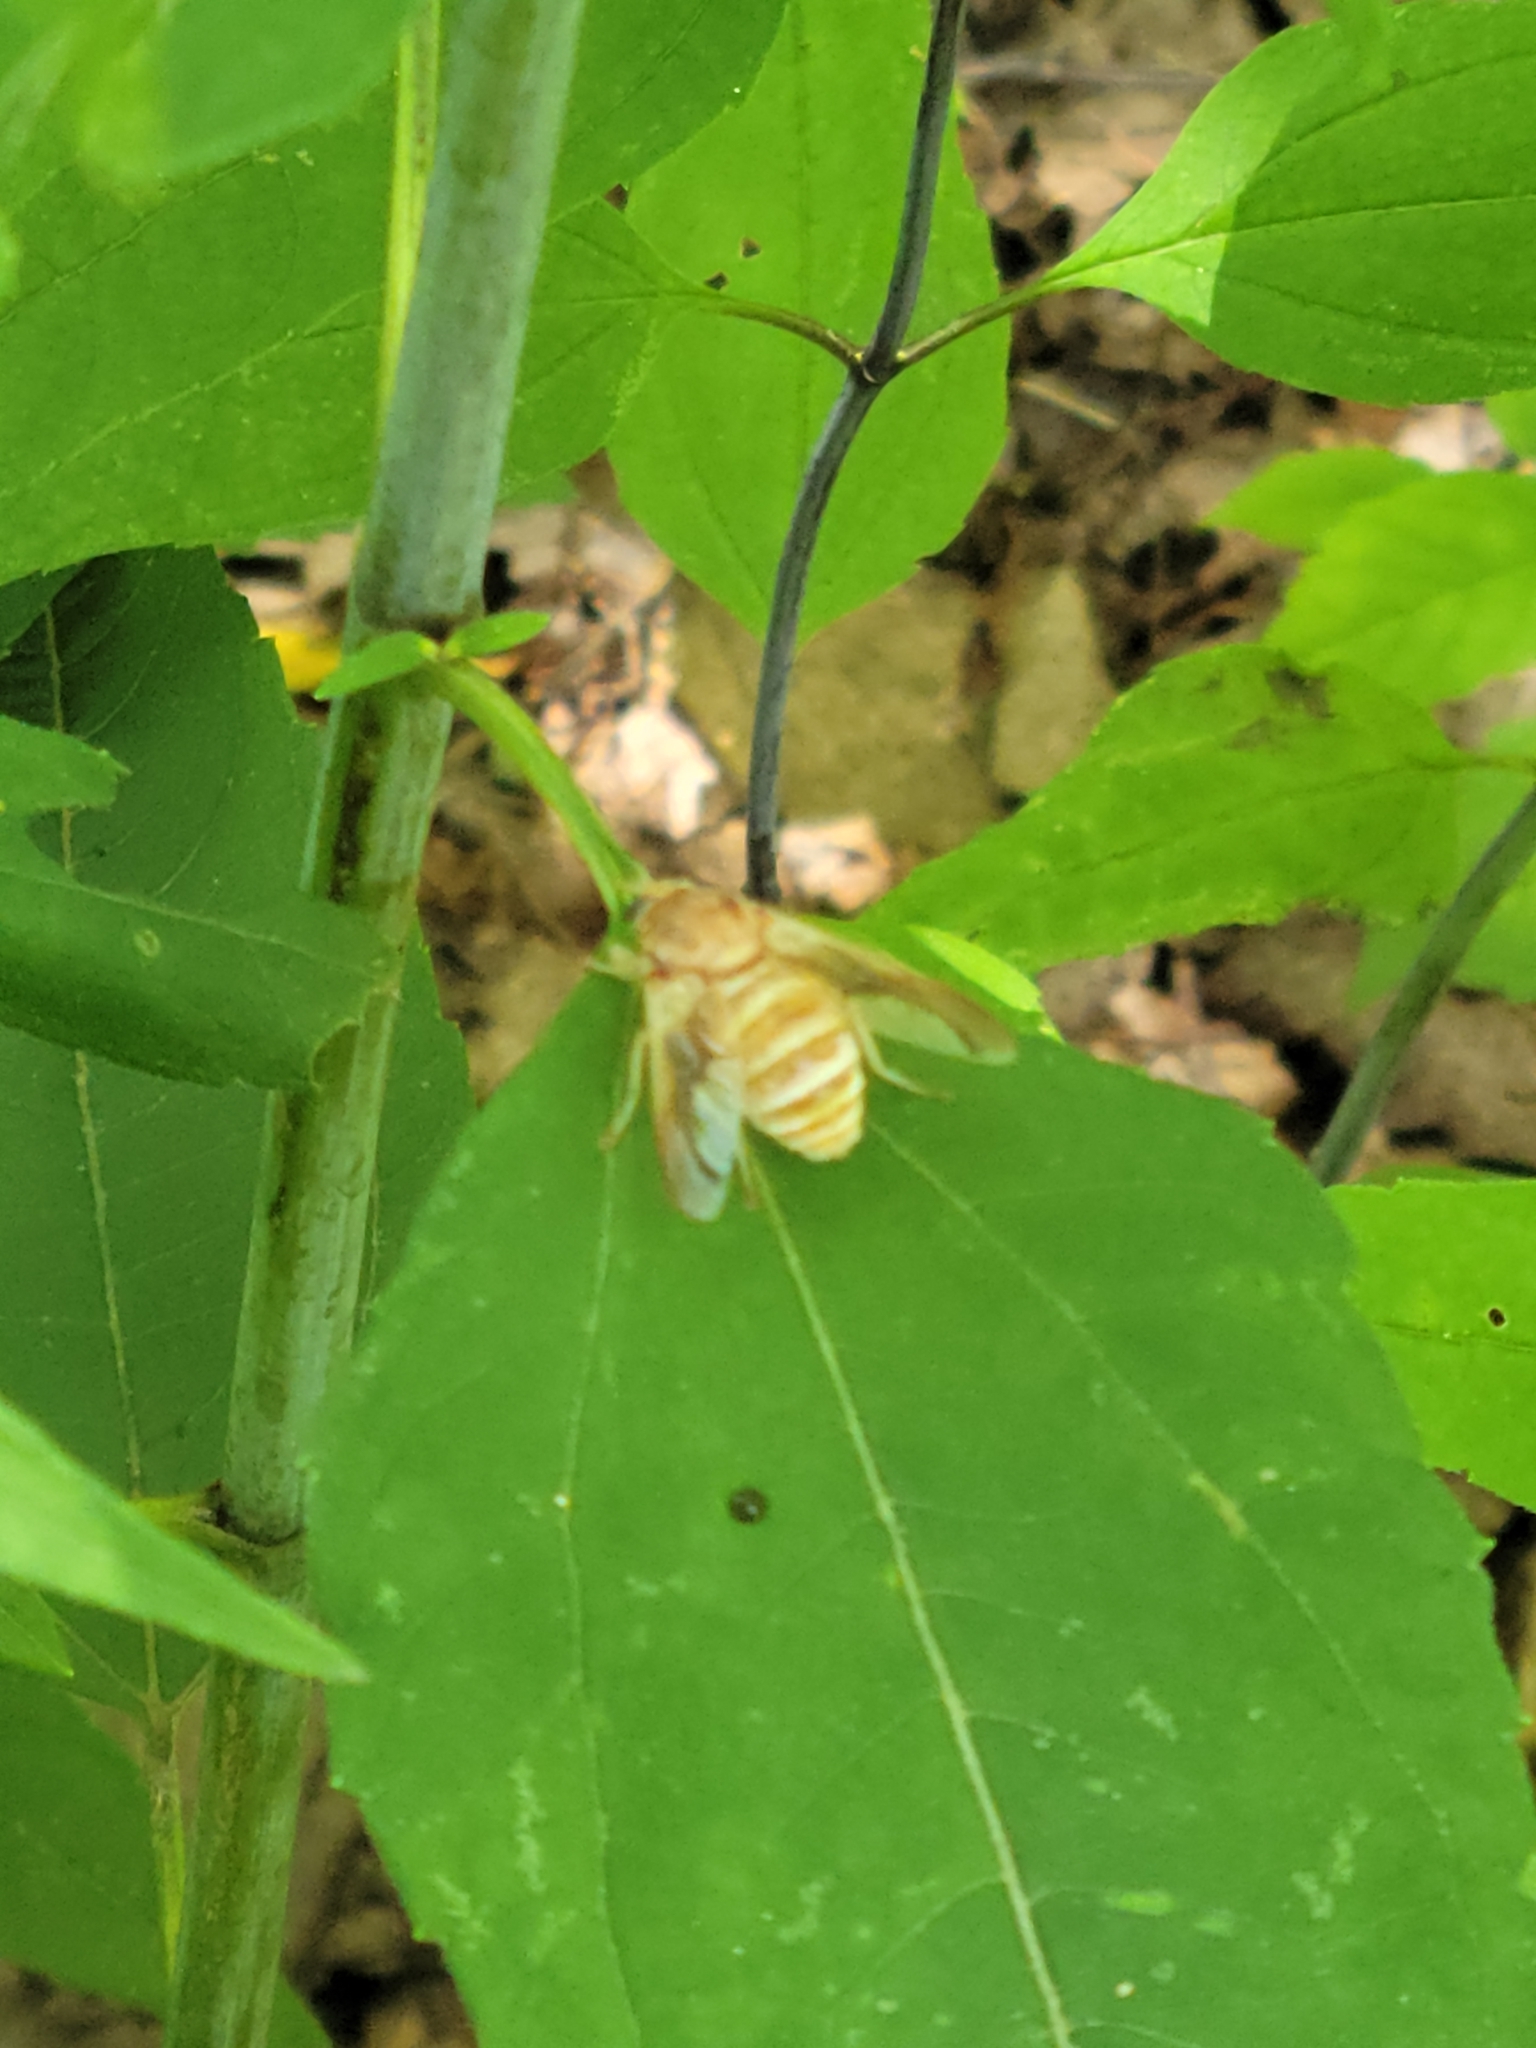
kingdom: Animalia
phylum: Arthropoda
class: Insecta
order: Diptera
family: Tabanidae
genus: Goniops
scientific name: Goniops chrysocoma
